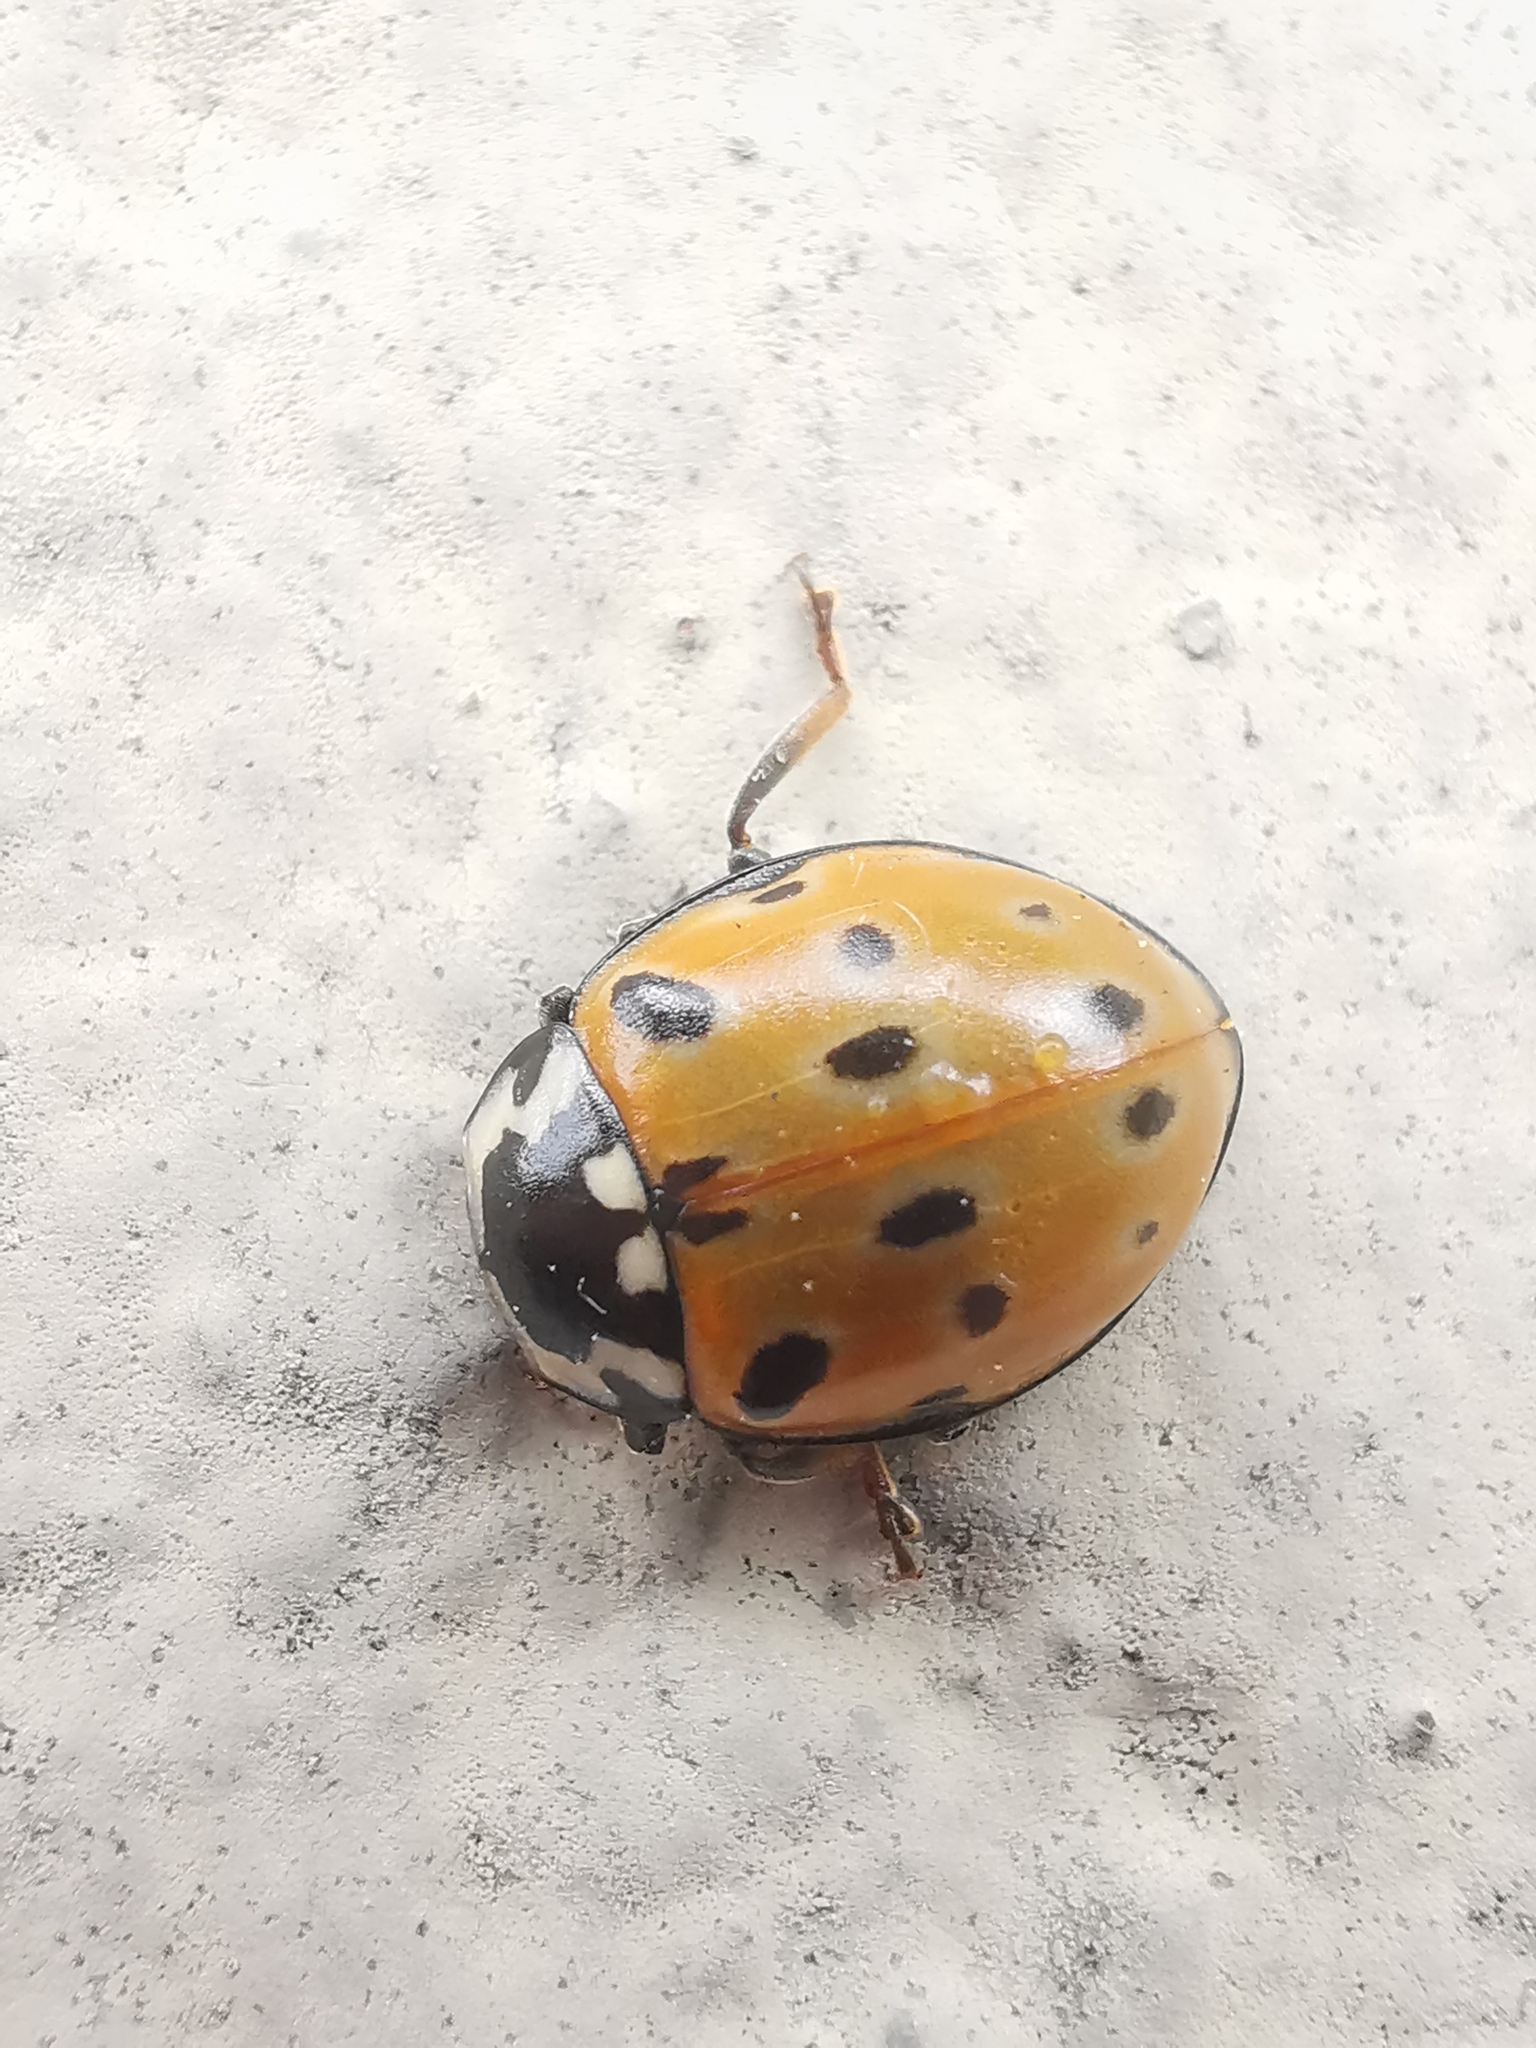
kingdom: Animalia
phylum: Arthropoda
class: Insecta
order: Coleoptera
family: Coccinellidae
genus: Anatis
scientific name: Anatis ocellata
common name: Eyed ladybird
